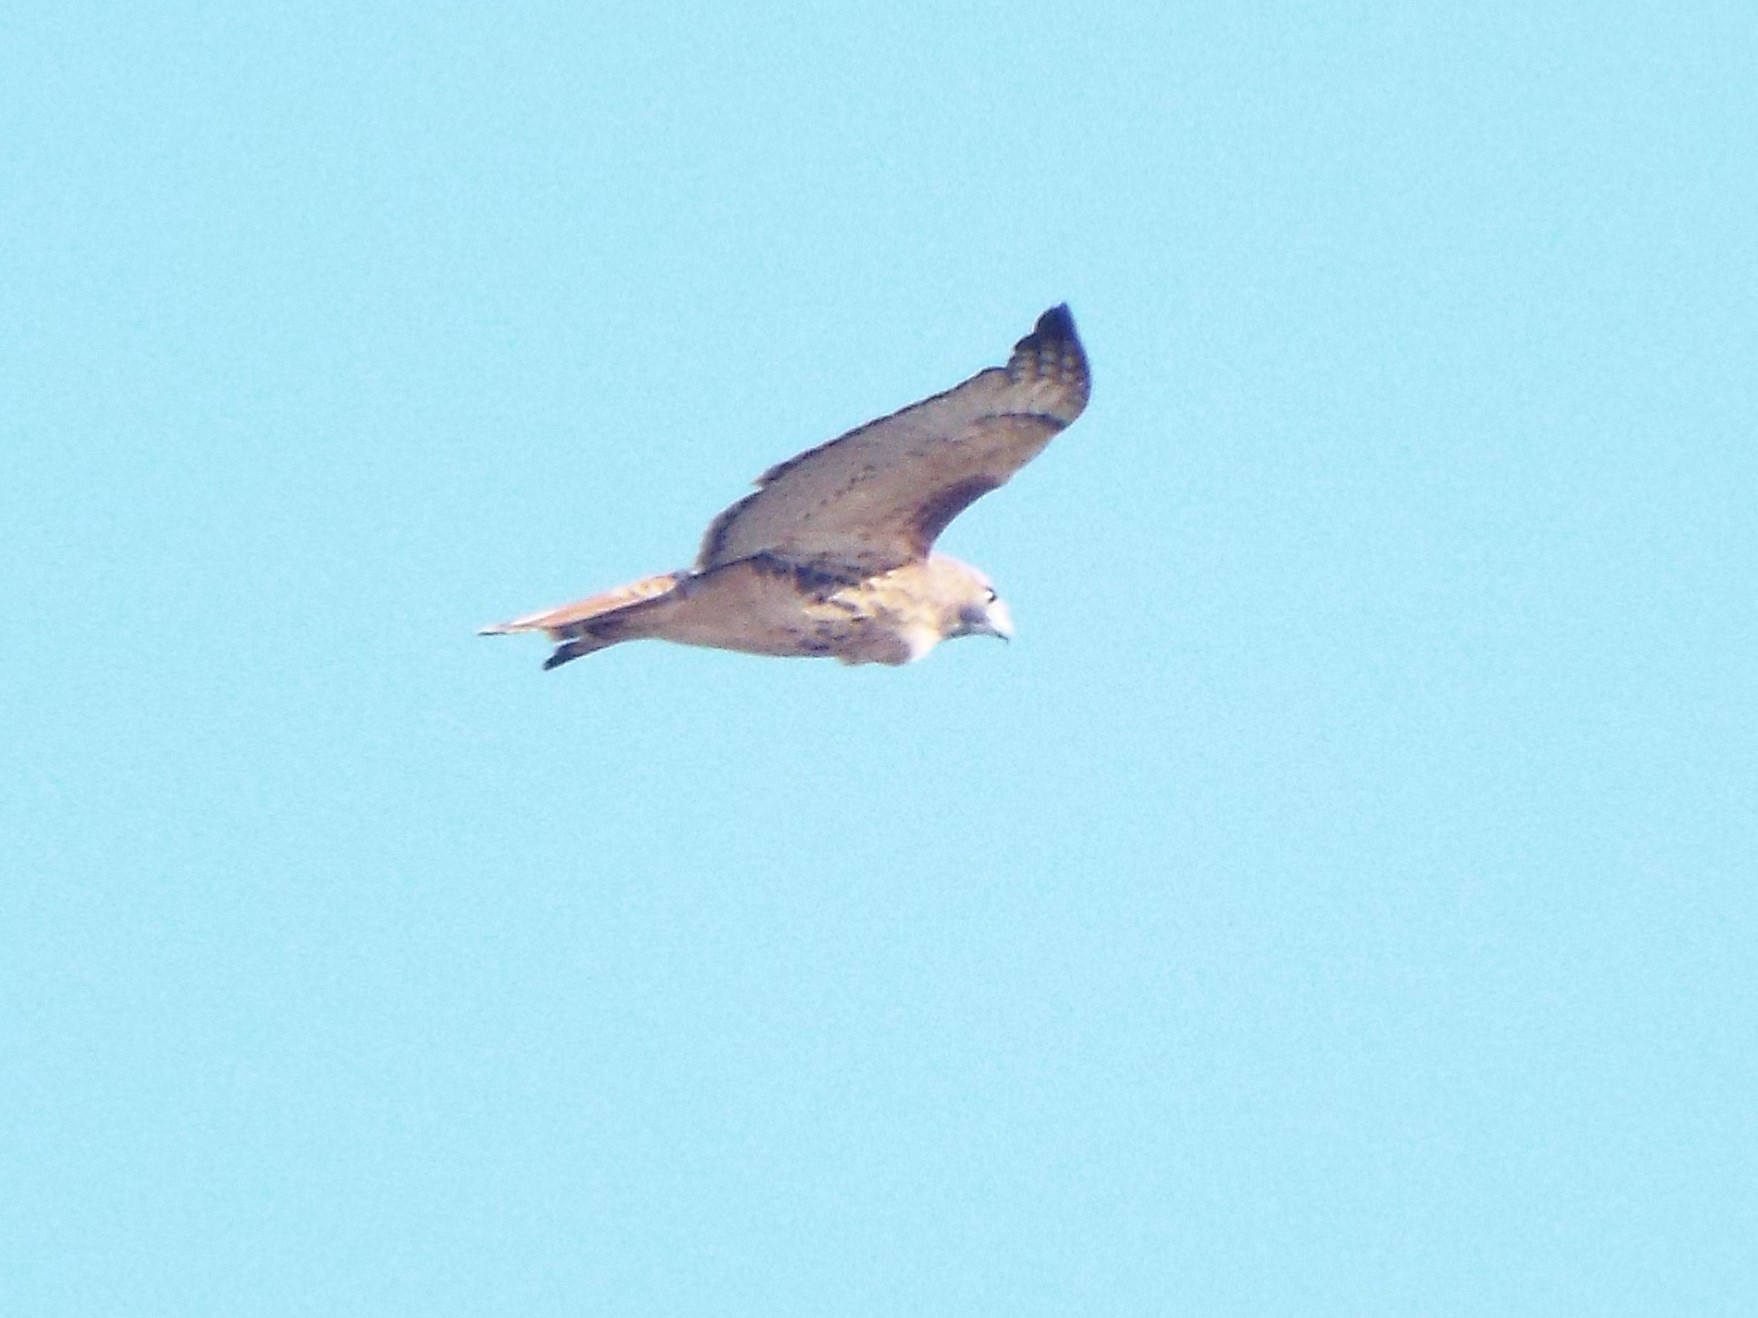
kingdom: Animalia
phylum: Chordata
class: Aves
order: Accipitriformes
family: Accipitridae
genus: Buteo
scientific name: Buteo jamaicensis
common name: Red-tailed hawk
